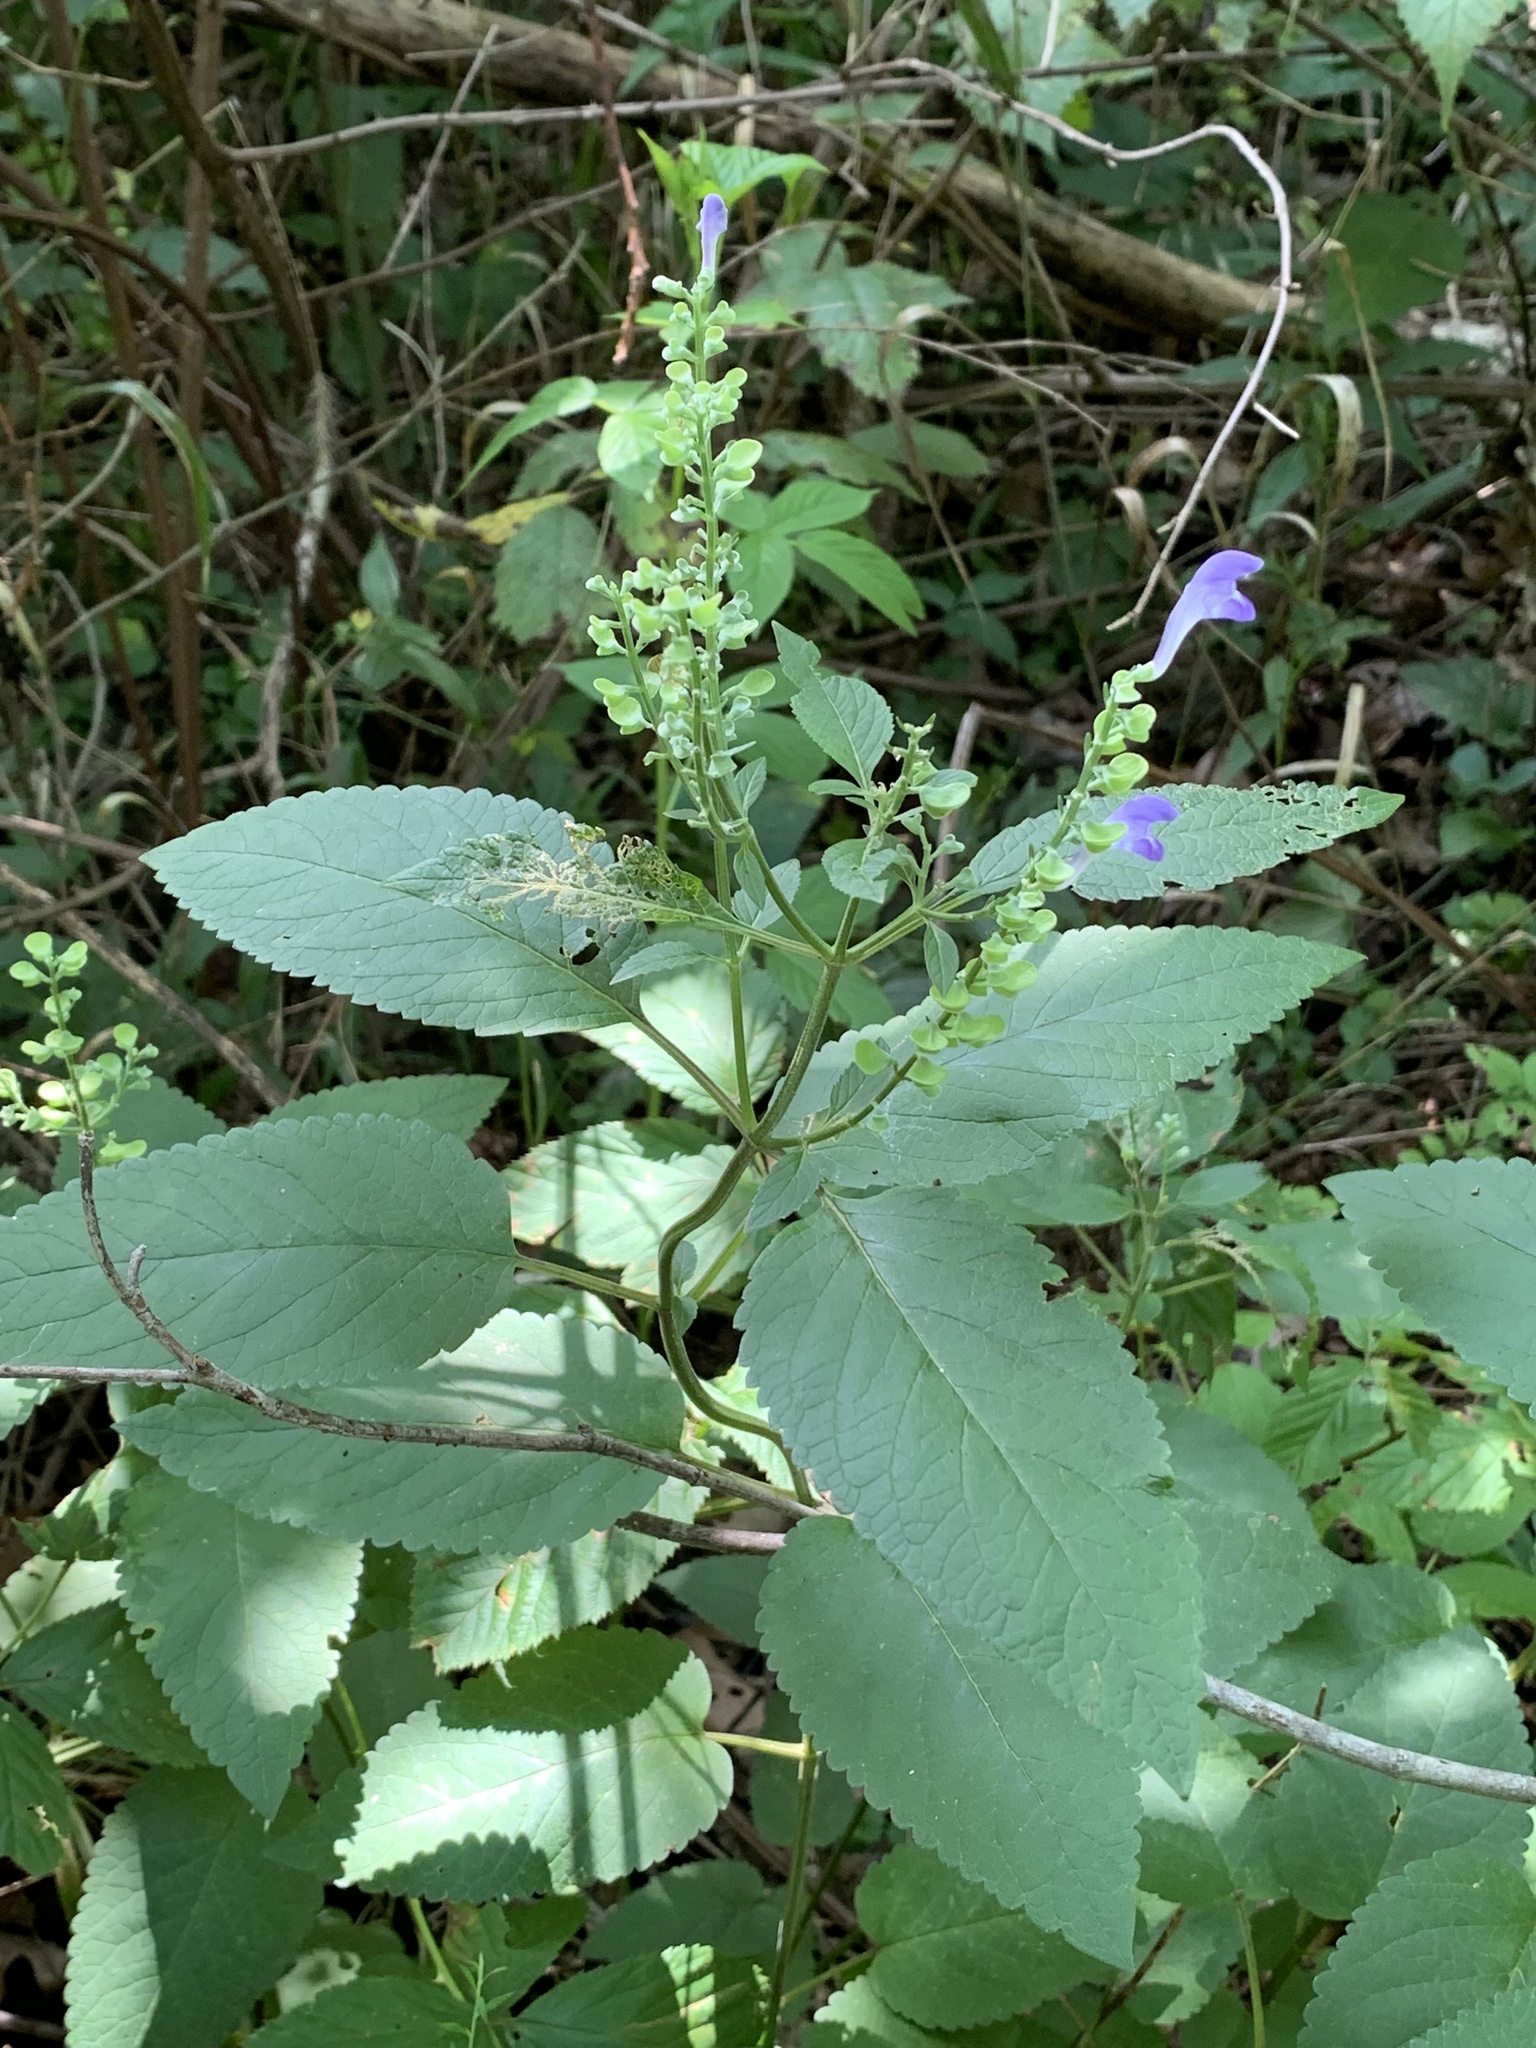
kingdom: Plantae
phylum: Tracheophyta
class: Magnoliopsida
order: Lamiales
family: Lamiaceae
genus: Scutellaria
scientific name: Scutellaria incana
